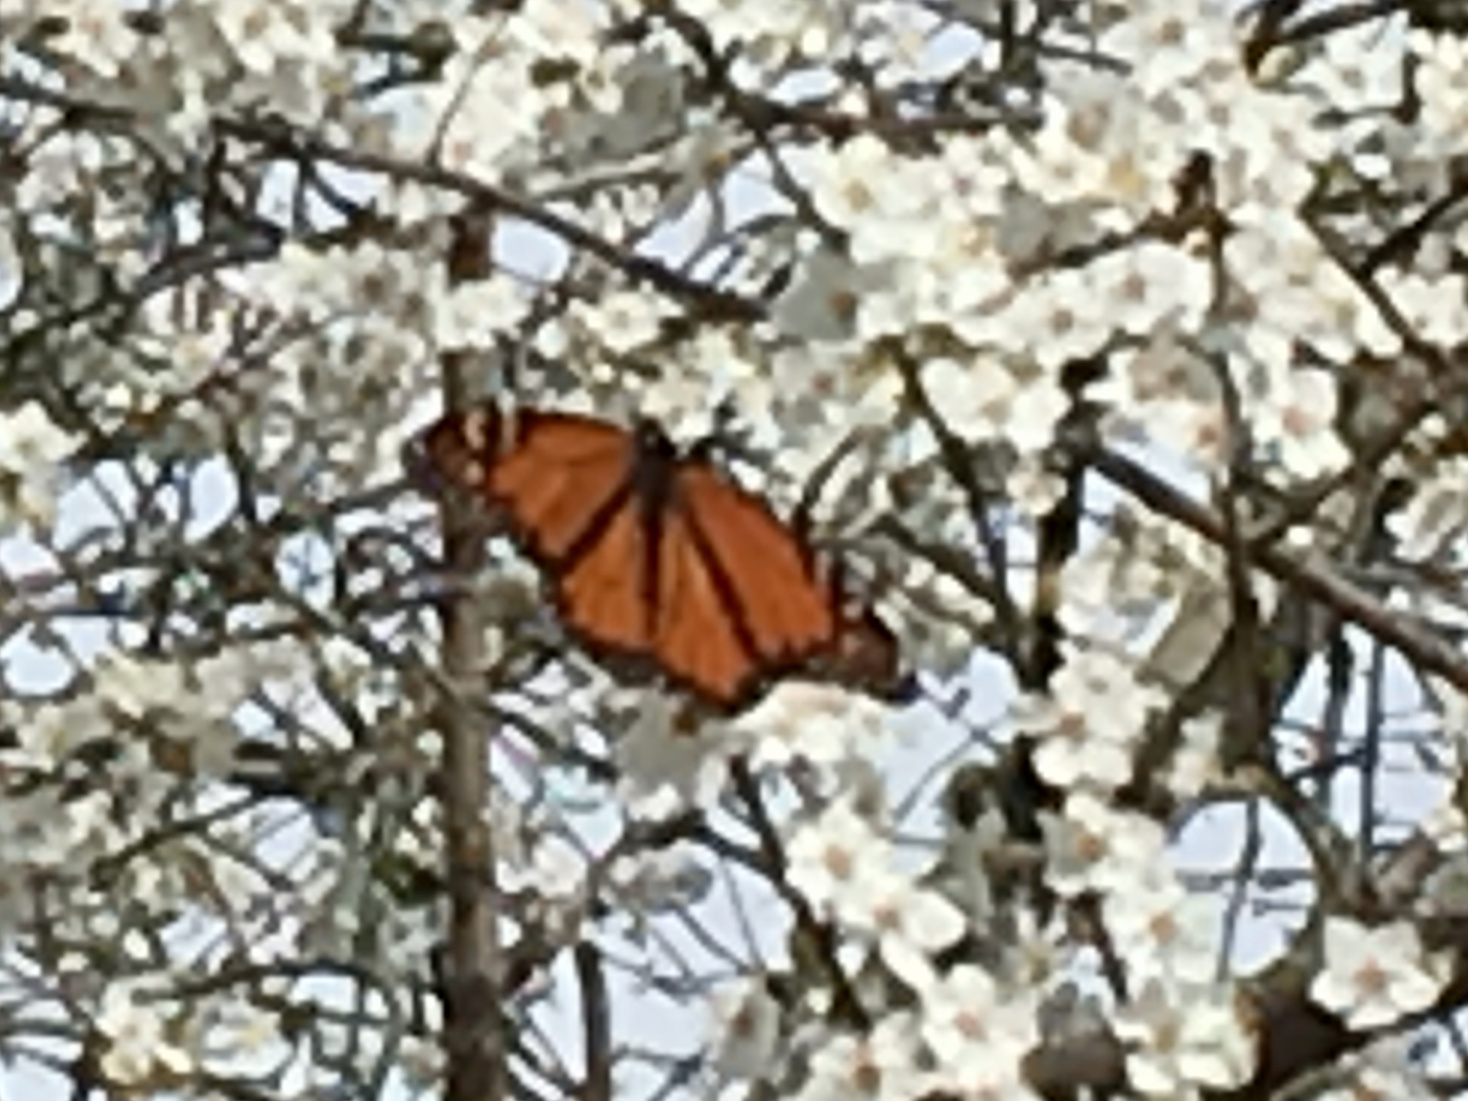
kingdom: Animalia
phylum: Arthropoda
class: Insecta
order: Lepidoptera
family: Nymphalidae
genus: Danaus
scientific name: Danaus plexippus
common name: Monarch
